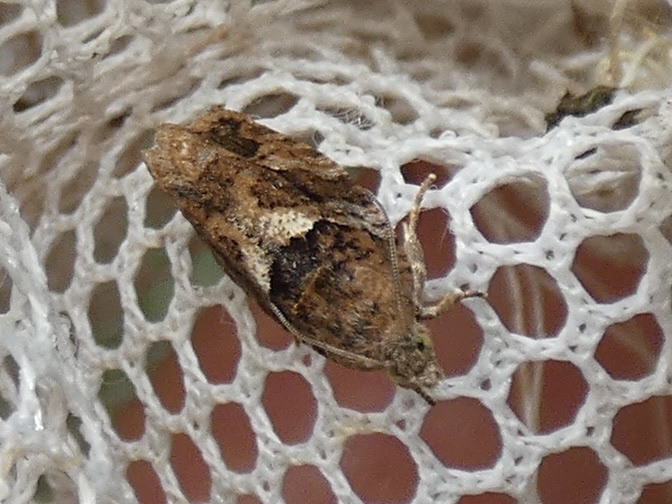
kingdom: Animalia
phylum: Arthropoda
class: Insecta
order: Lepidoptera
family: Tortricidae
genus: Eudemis
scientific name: Eudemis profundana
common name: Diamond-back marble
